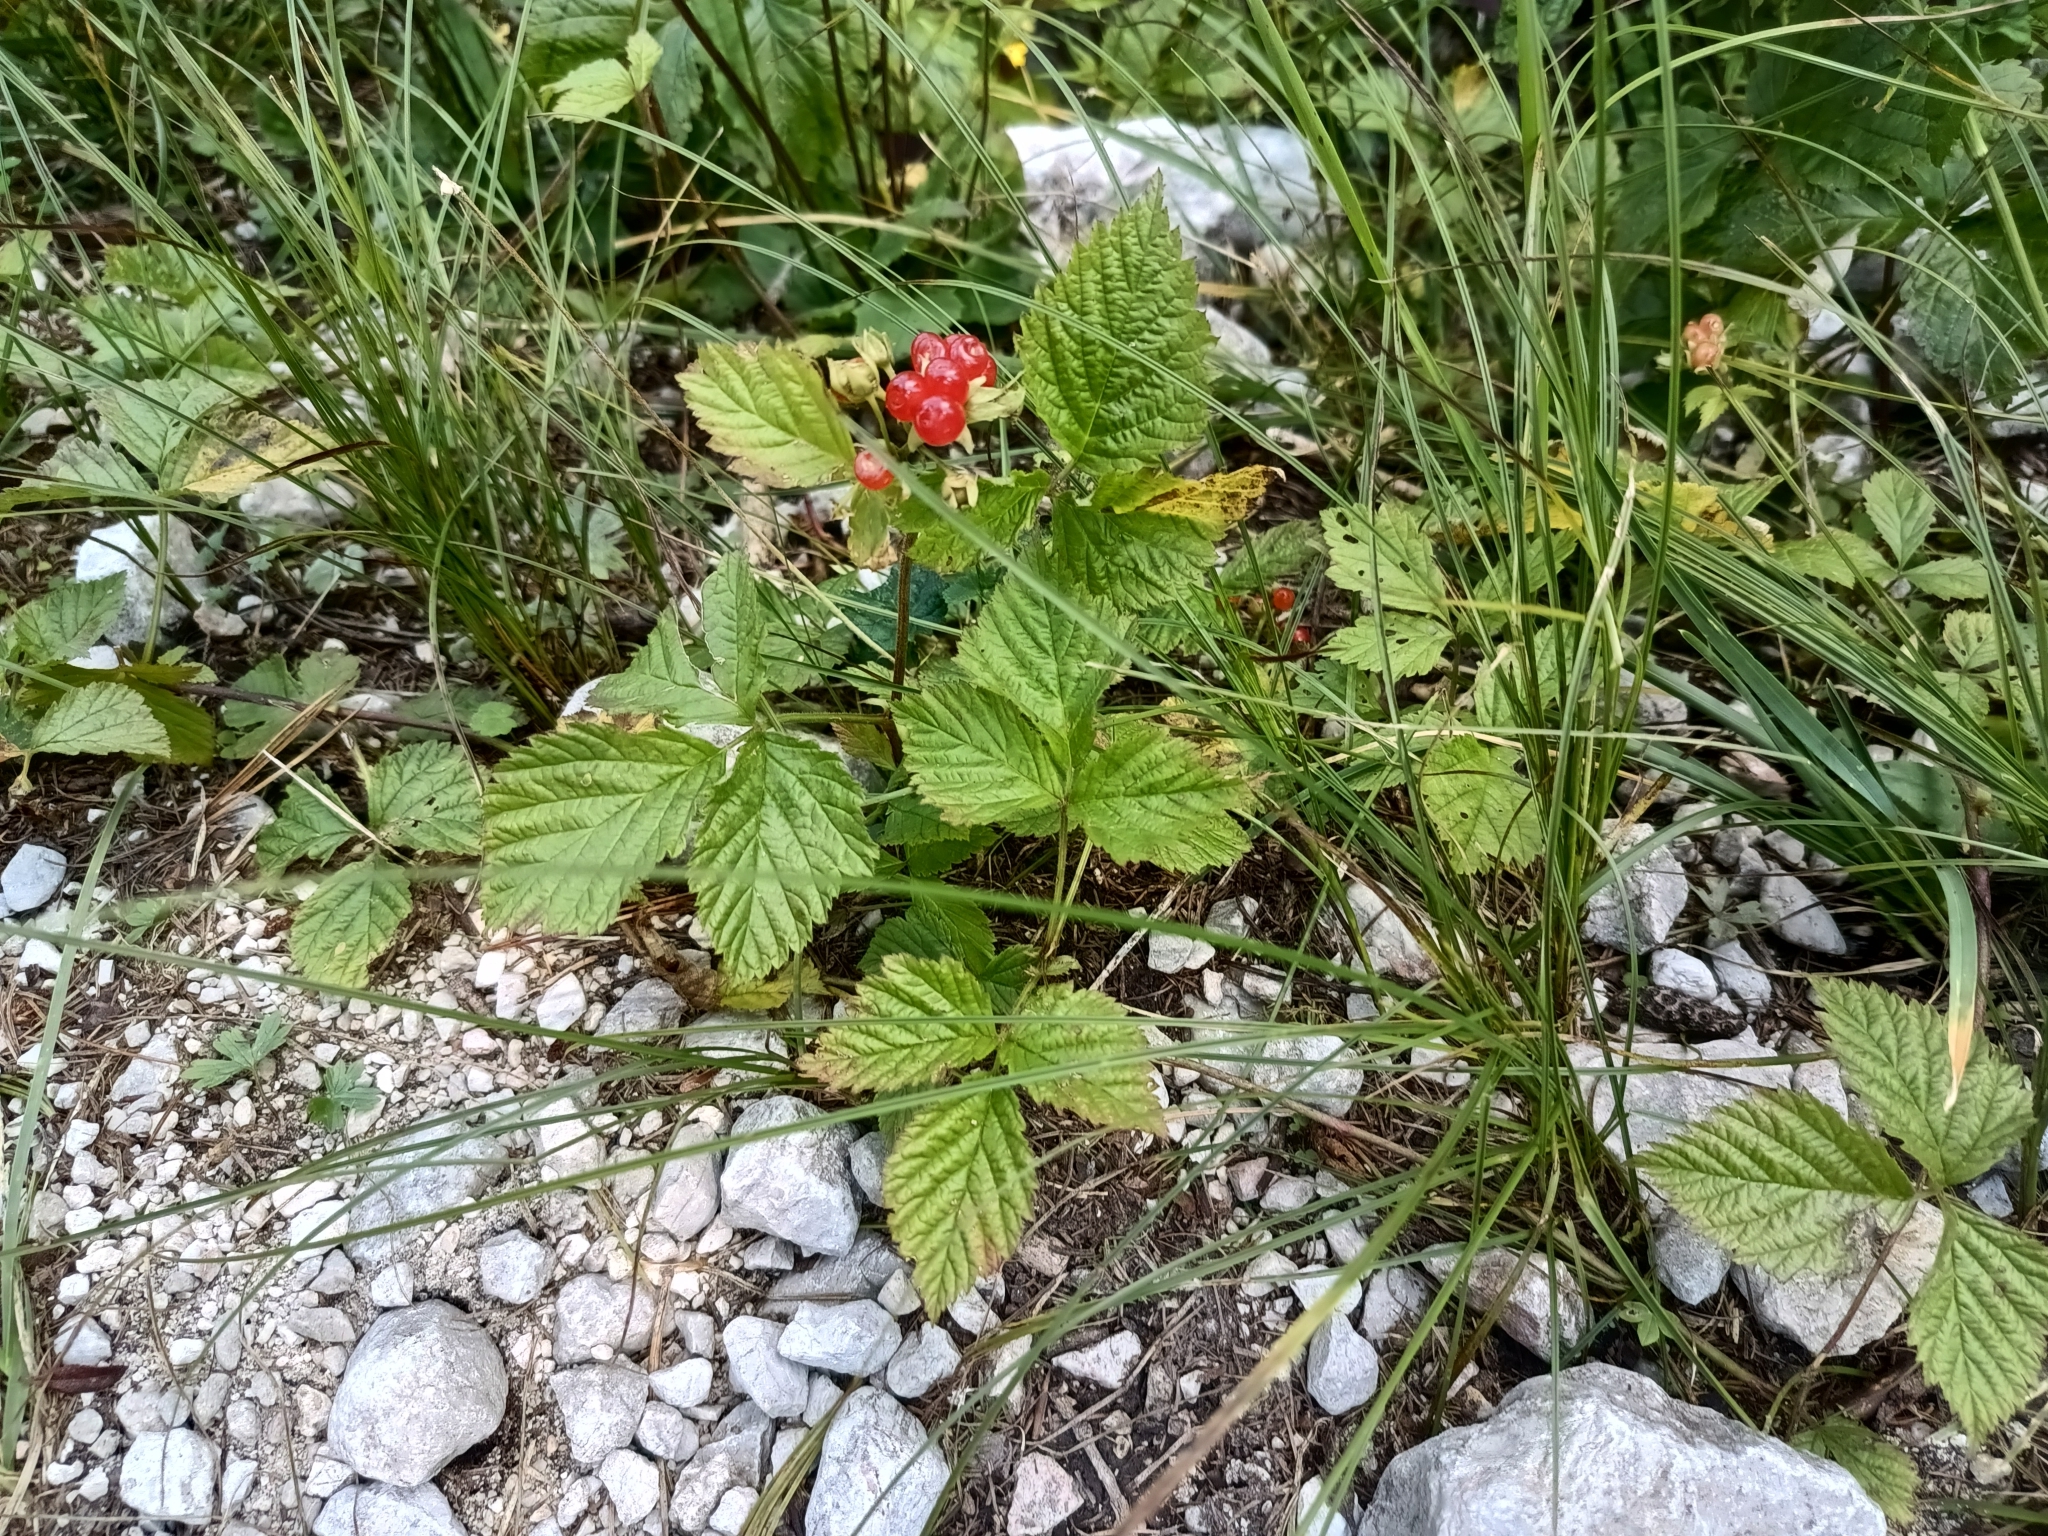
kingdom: Plantae
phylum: Tracheophyta
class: Magnoliopsida
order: Rosales
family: Rosaceae
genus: Rubus
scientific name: Rubus saxatilis
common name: Stone bramble
